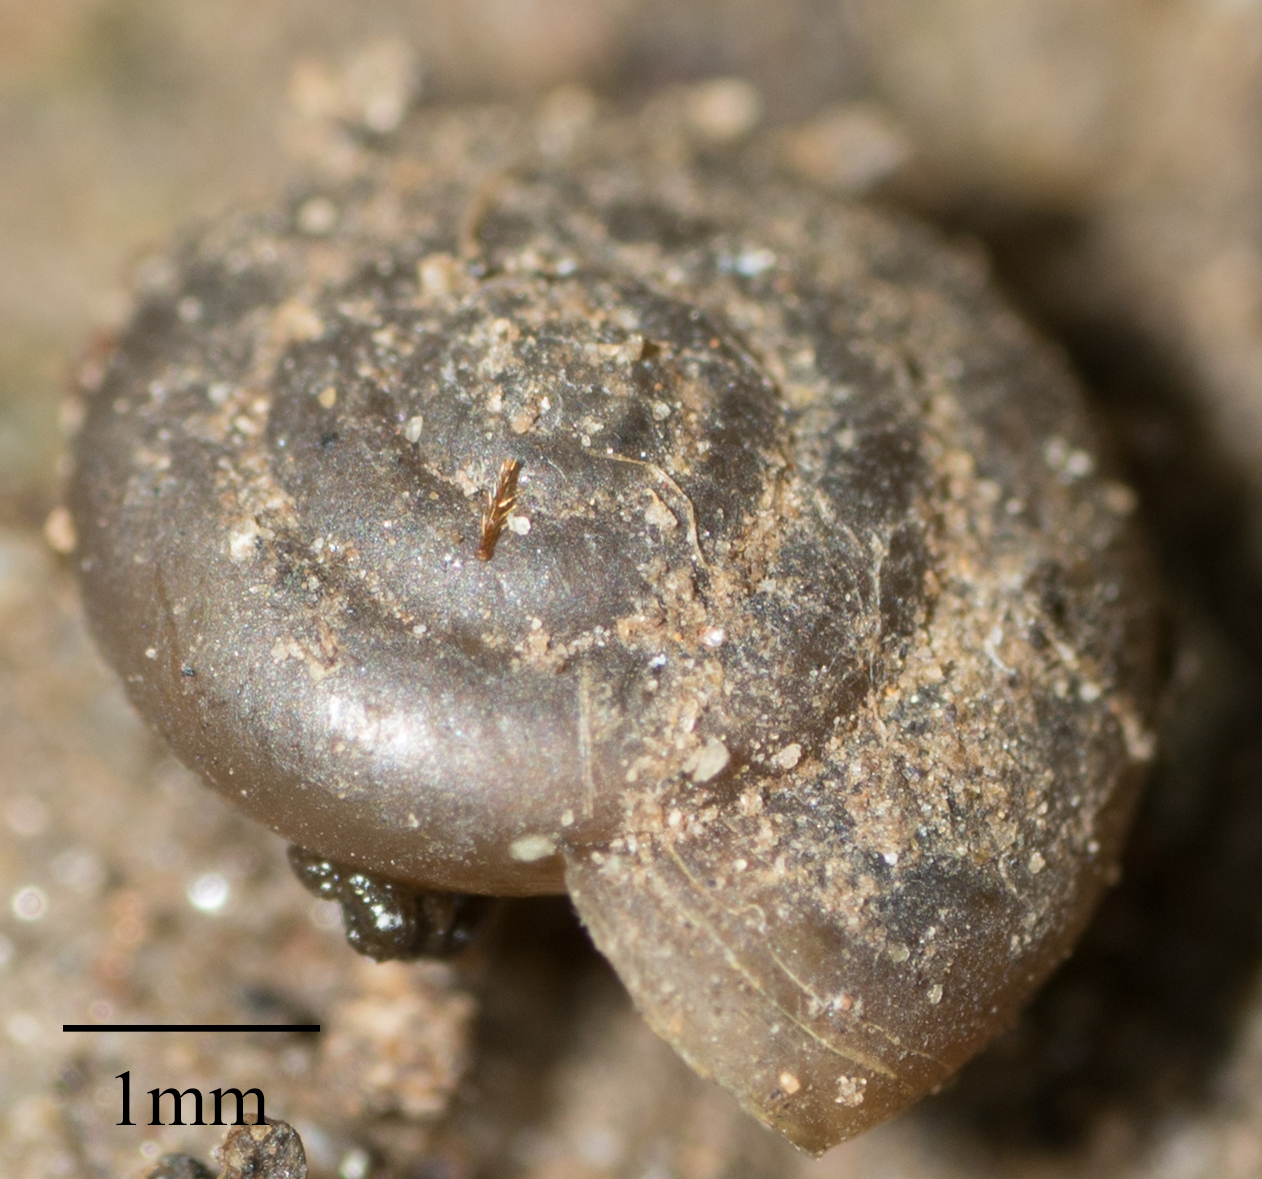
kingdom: Animalia
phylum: Mollusca
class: Gastropoda
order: Stylommatophora
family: Gastrodontidae
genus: Zonitoides
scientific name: Zonitoides arboreus
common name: Quick gloss
